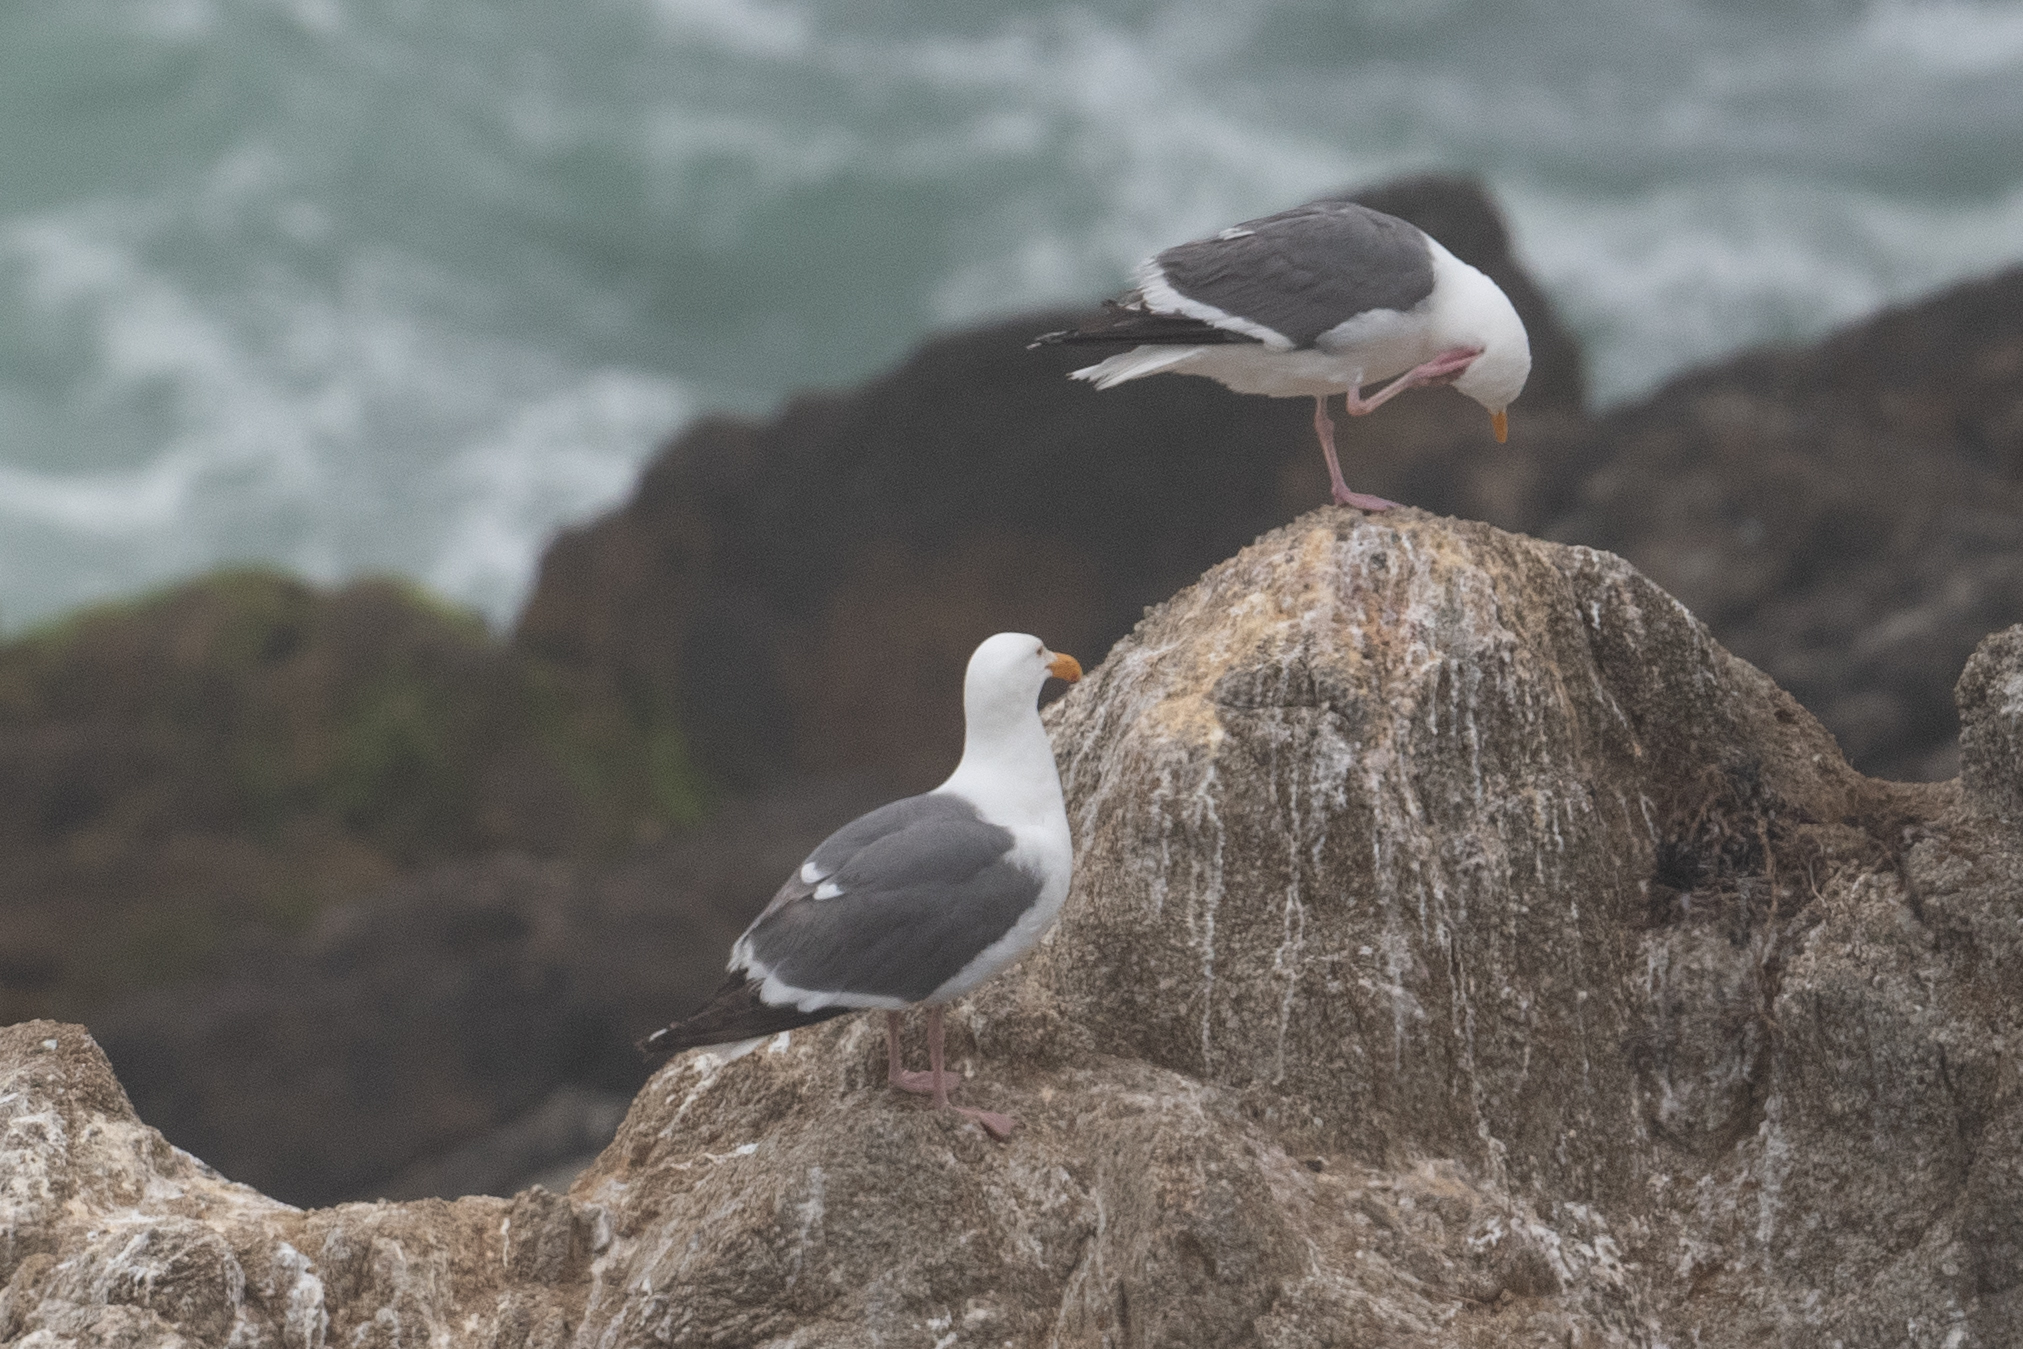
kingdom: Animalia
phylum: Chordata
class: Aves
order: Charadriiformes
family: Laridae
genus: Larus
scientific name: Larus occidentalis
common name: Western gull
